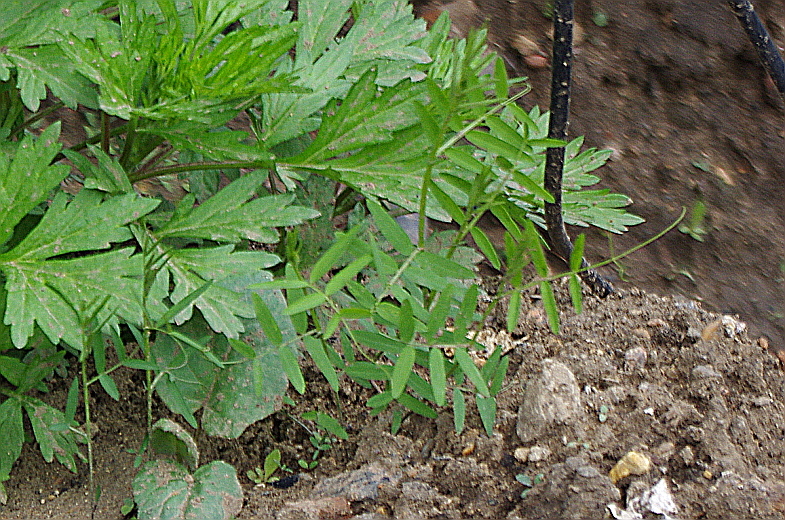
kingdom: Plantae
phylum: Tracheophyta
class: Magnoliopsida
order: Fabales
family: Fabaceae
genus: Vicia
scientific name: Vicia cracca
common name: Bird vetch
